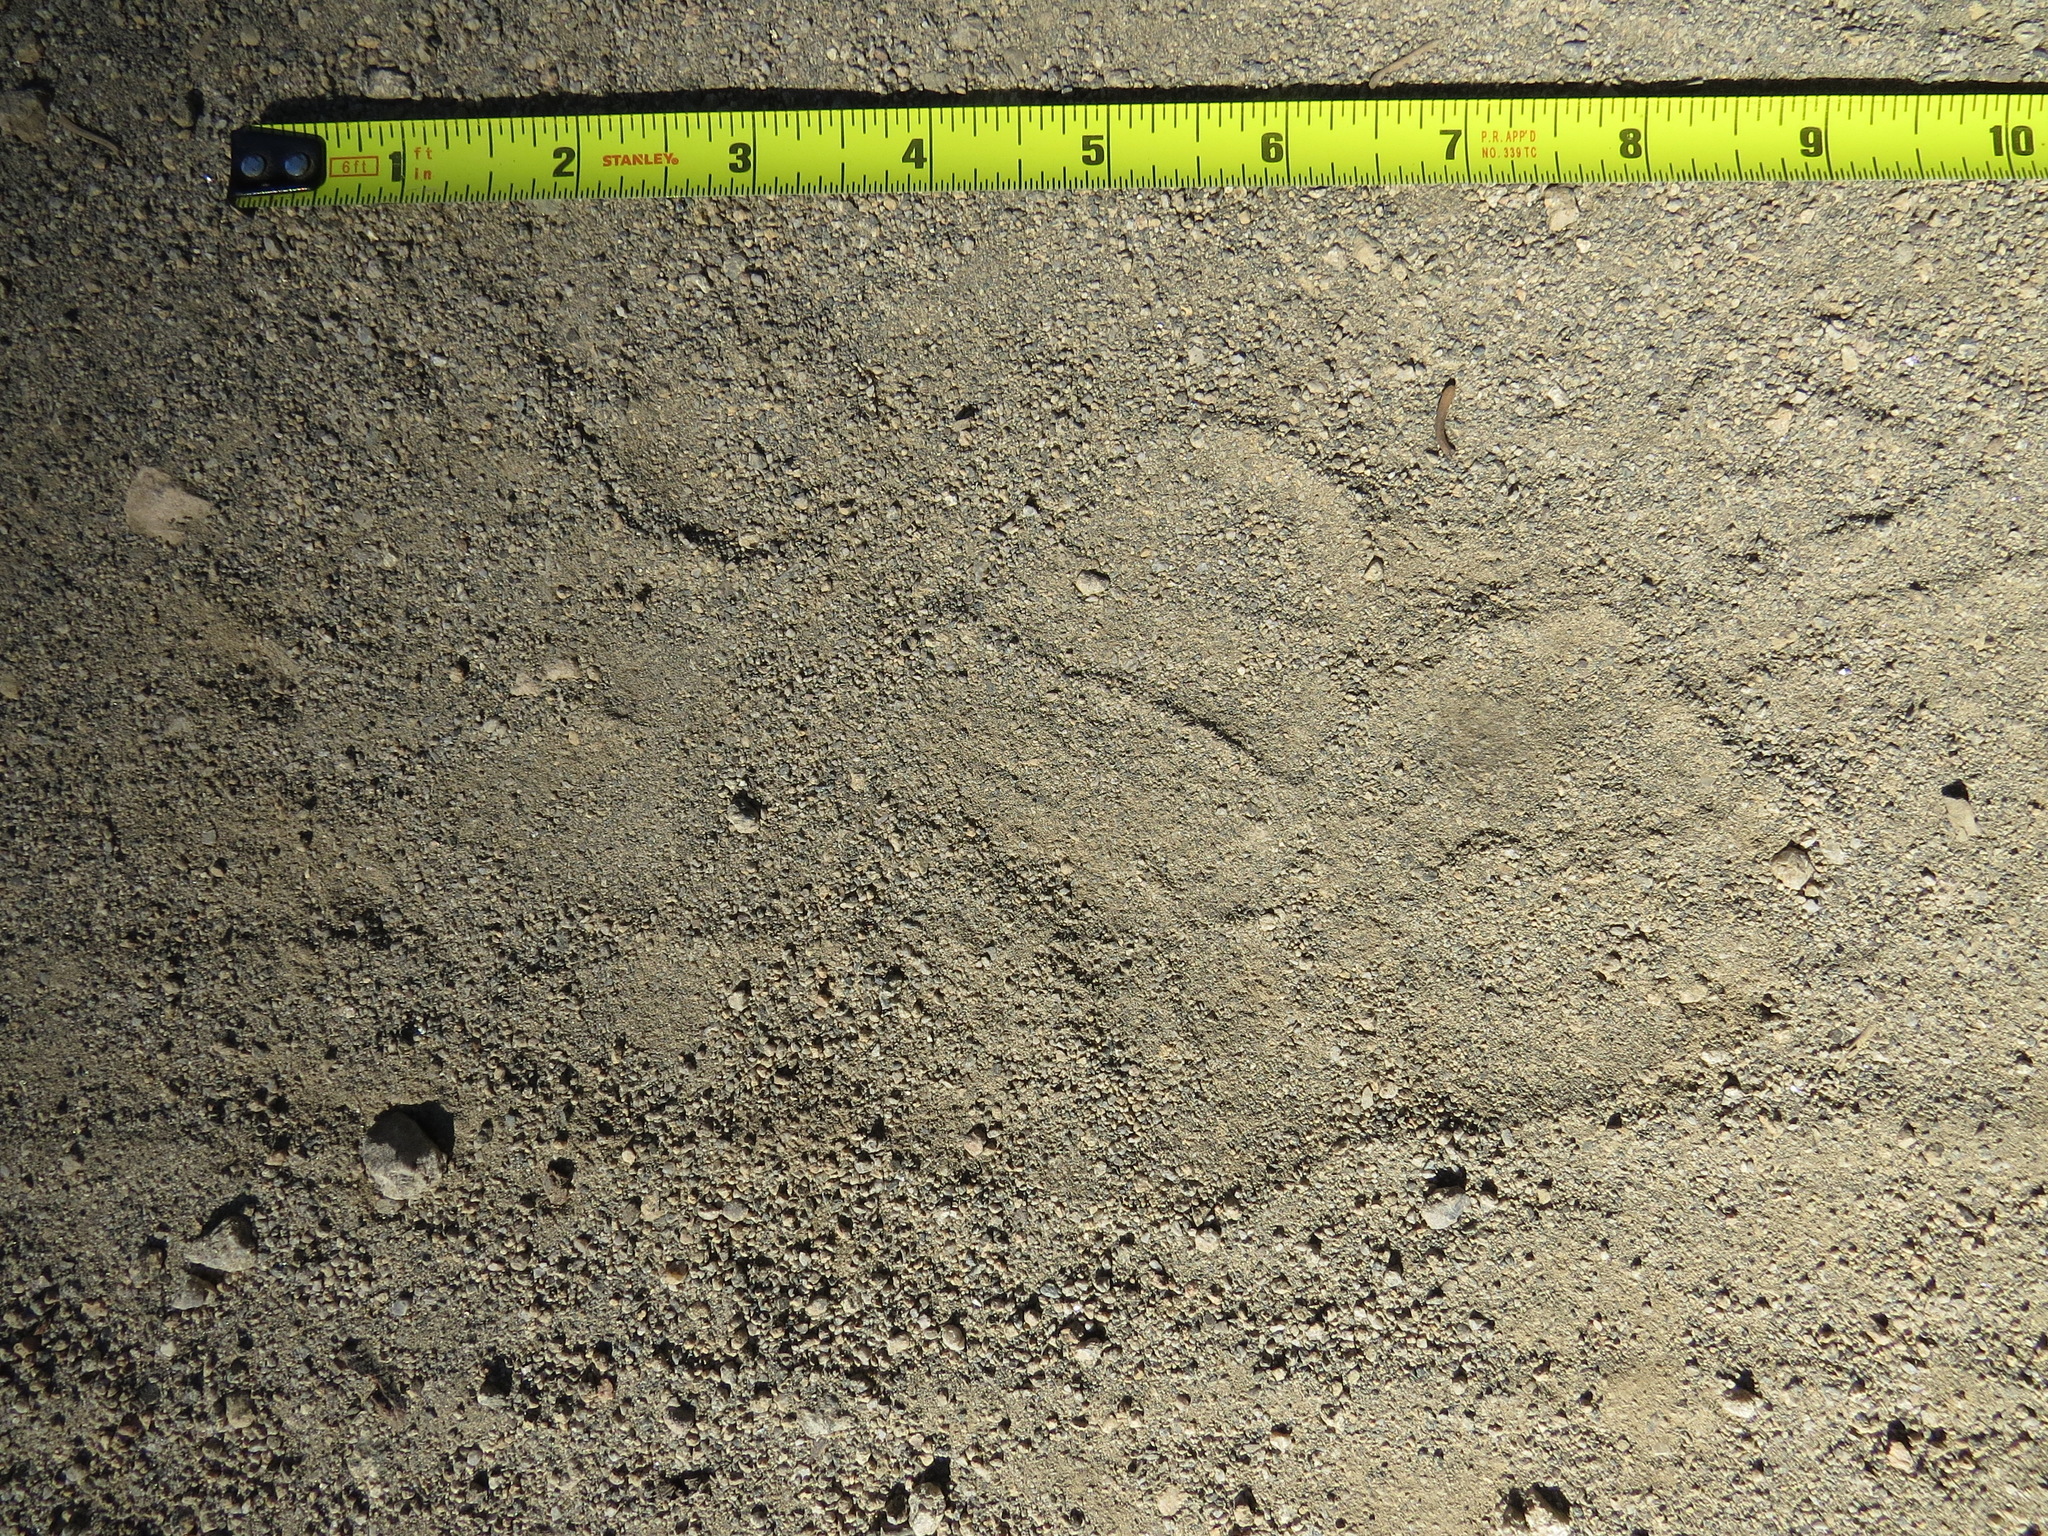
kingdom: Animalia
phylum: Chordata
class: Mammalia
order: Carnivora
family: Ursidae
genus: Ursus
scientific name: Ursus americanus
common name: American black bear
